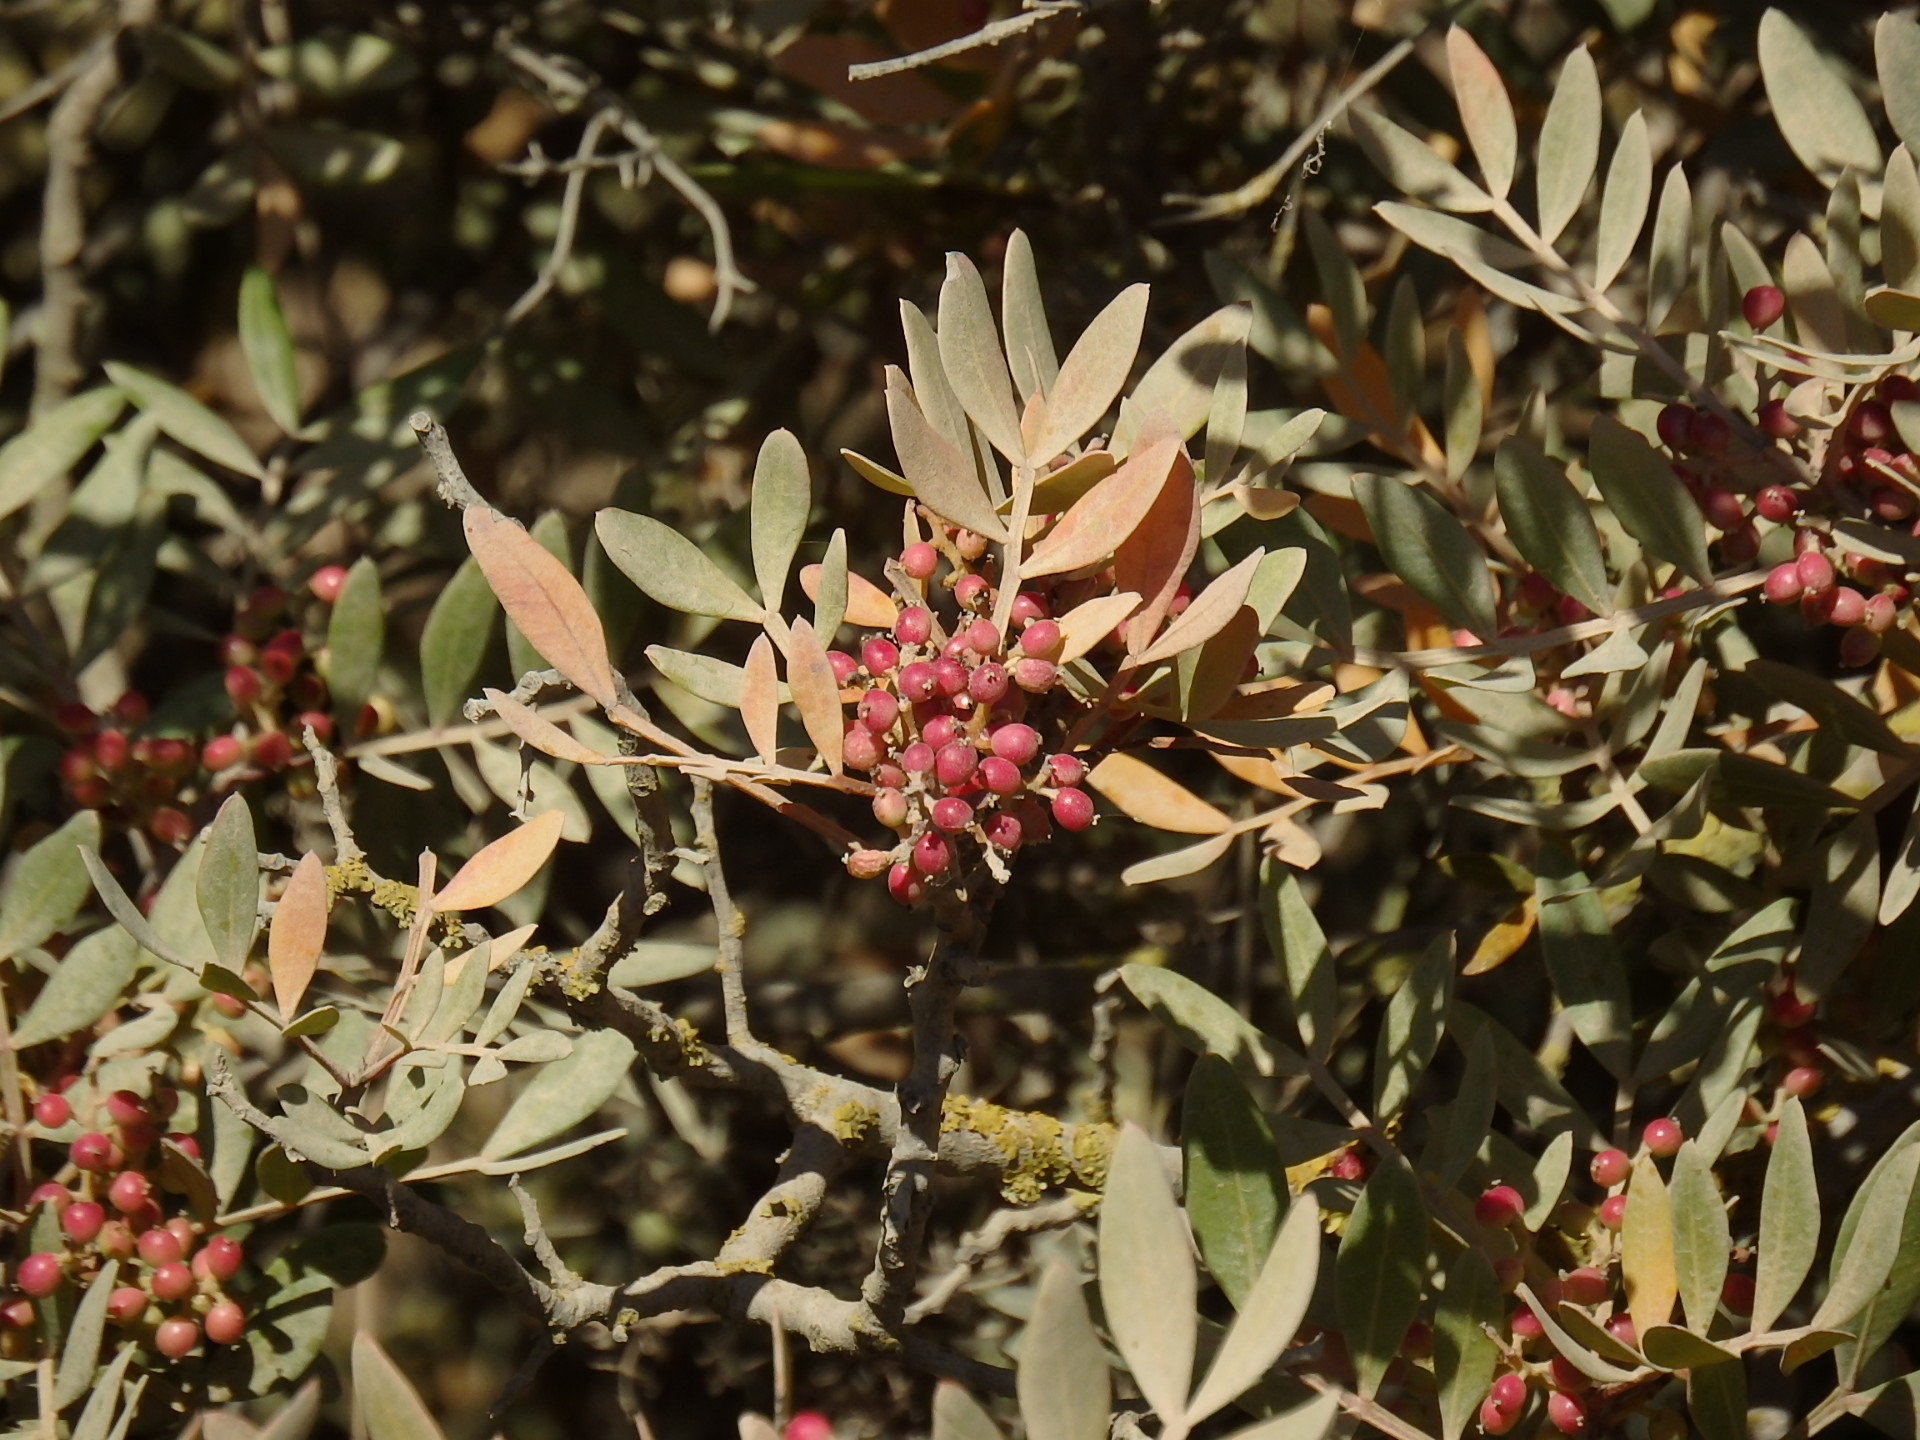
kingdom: Plantae
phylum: Tracheophyta
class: Magnoliopsida
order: Sapindales
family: Anacardiaceae
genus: Pistacia
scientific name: Pistacia lentiscus
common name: Lentisk
